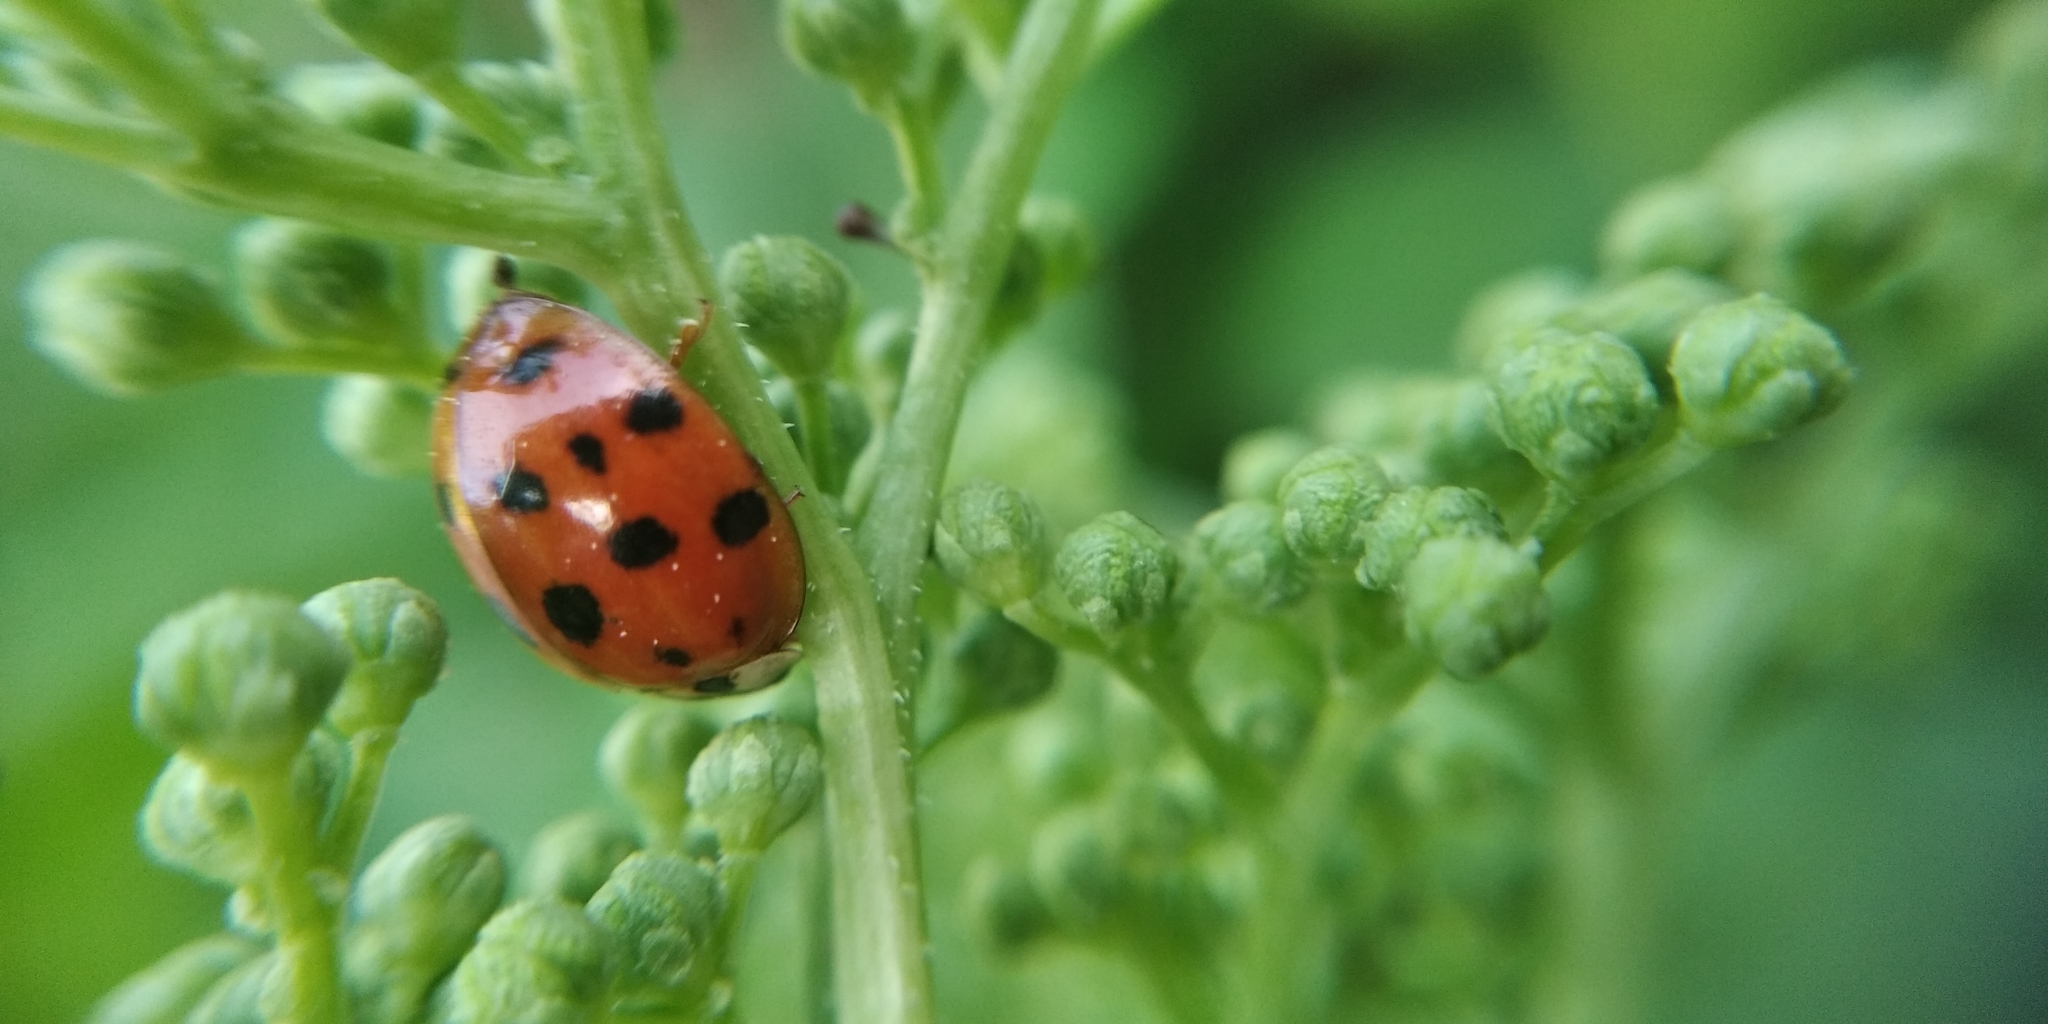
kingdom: Animalia
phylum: Arthropoda
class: Insecta
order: Coleoptera
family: Coccinellidae
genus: Harmonia
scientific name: Harmonia axyridis
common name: Harlequin ladybird
